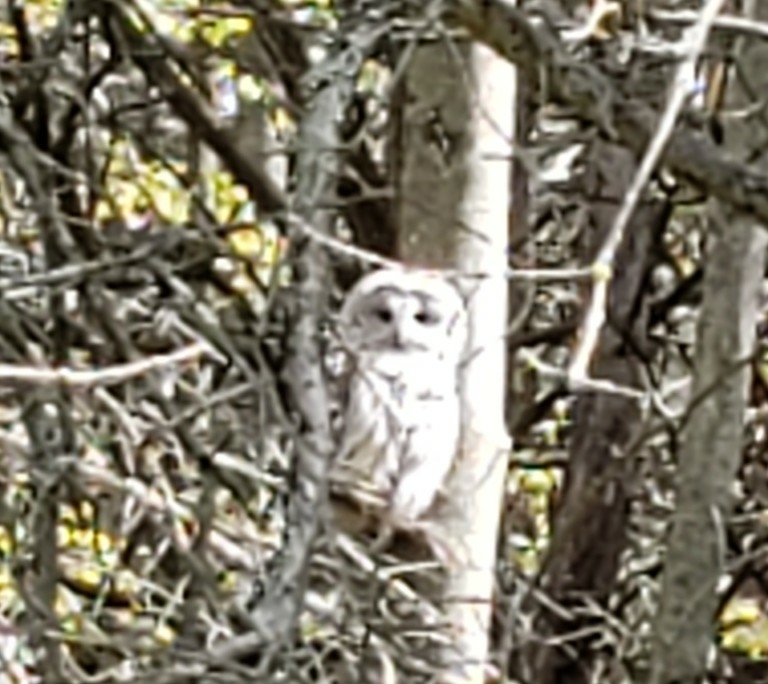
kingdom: Animalia
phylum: Chordata
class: Aves
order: Strigiformes
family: Strigidae
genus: Strix
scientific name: Strix varia
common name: Barred owl
